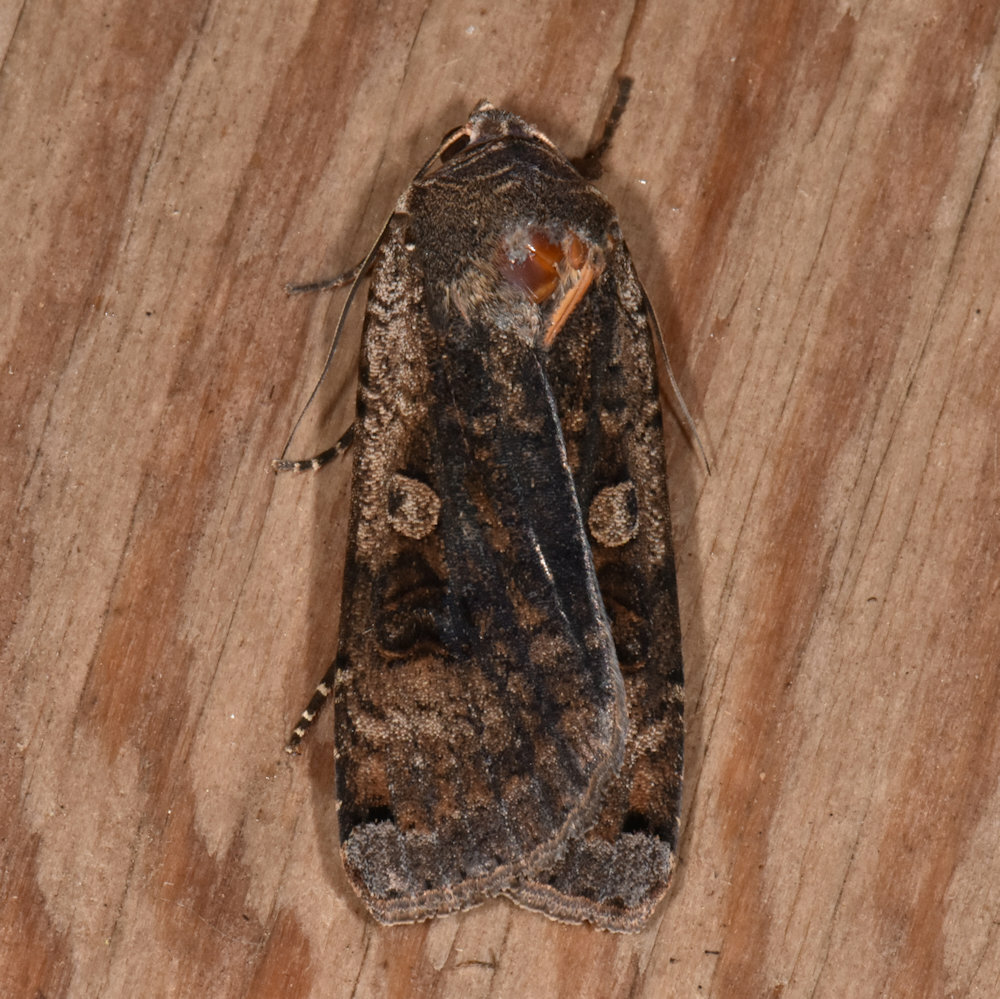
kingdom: Animalia
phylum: Arthropoda
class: Insecta
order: Lepidoptera
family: Noctuidae
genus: Noctua
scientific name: Noctua pronuba
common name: Large yellow underwing
